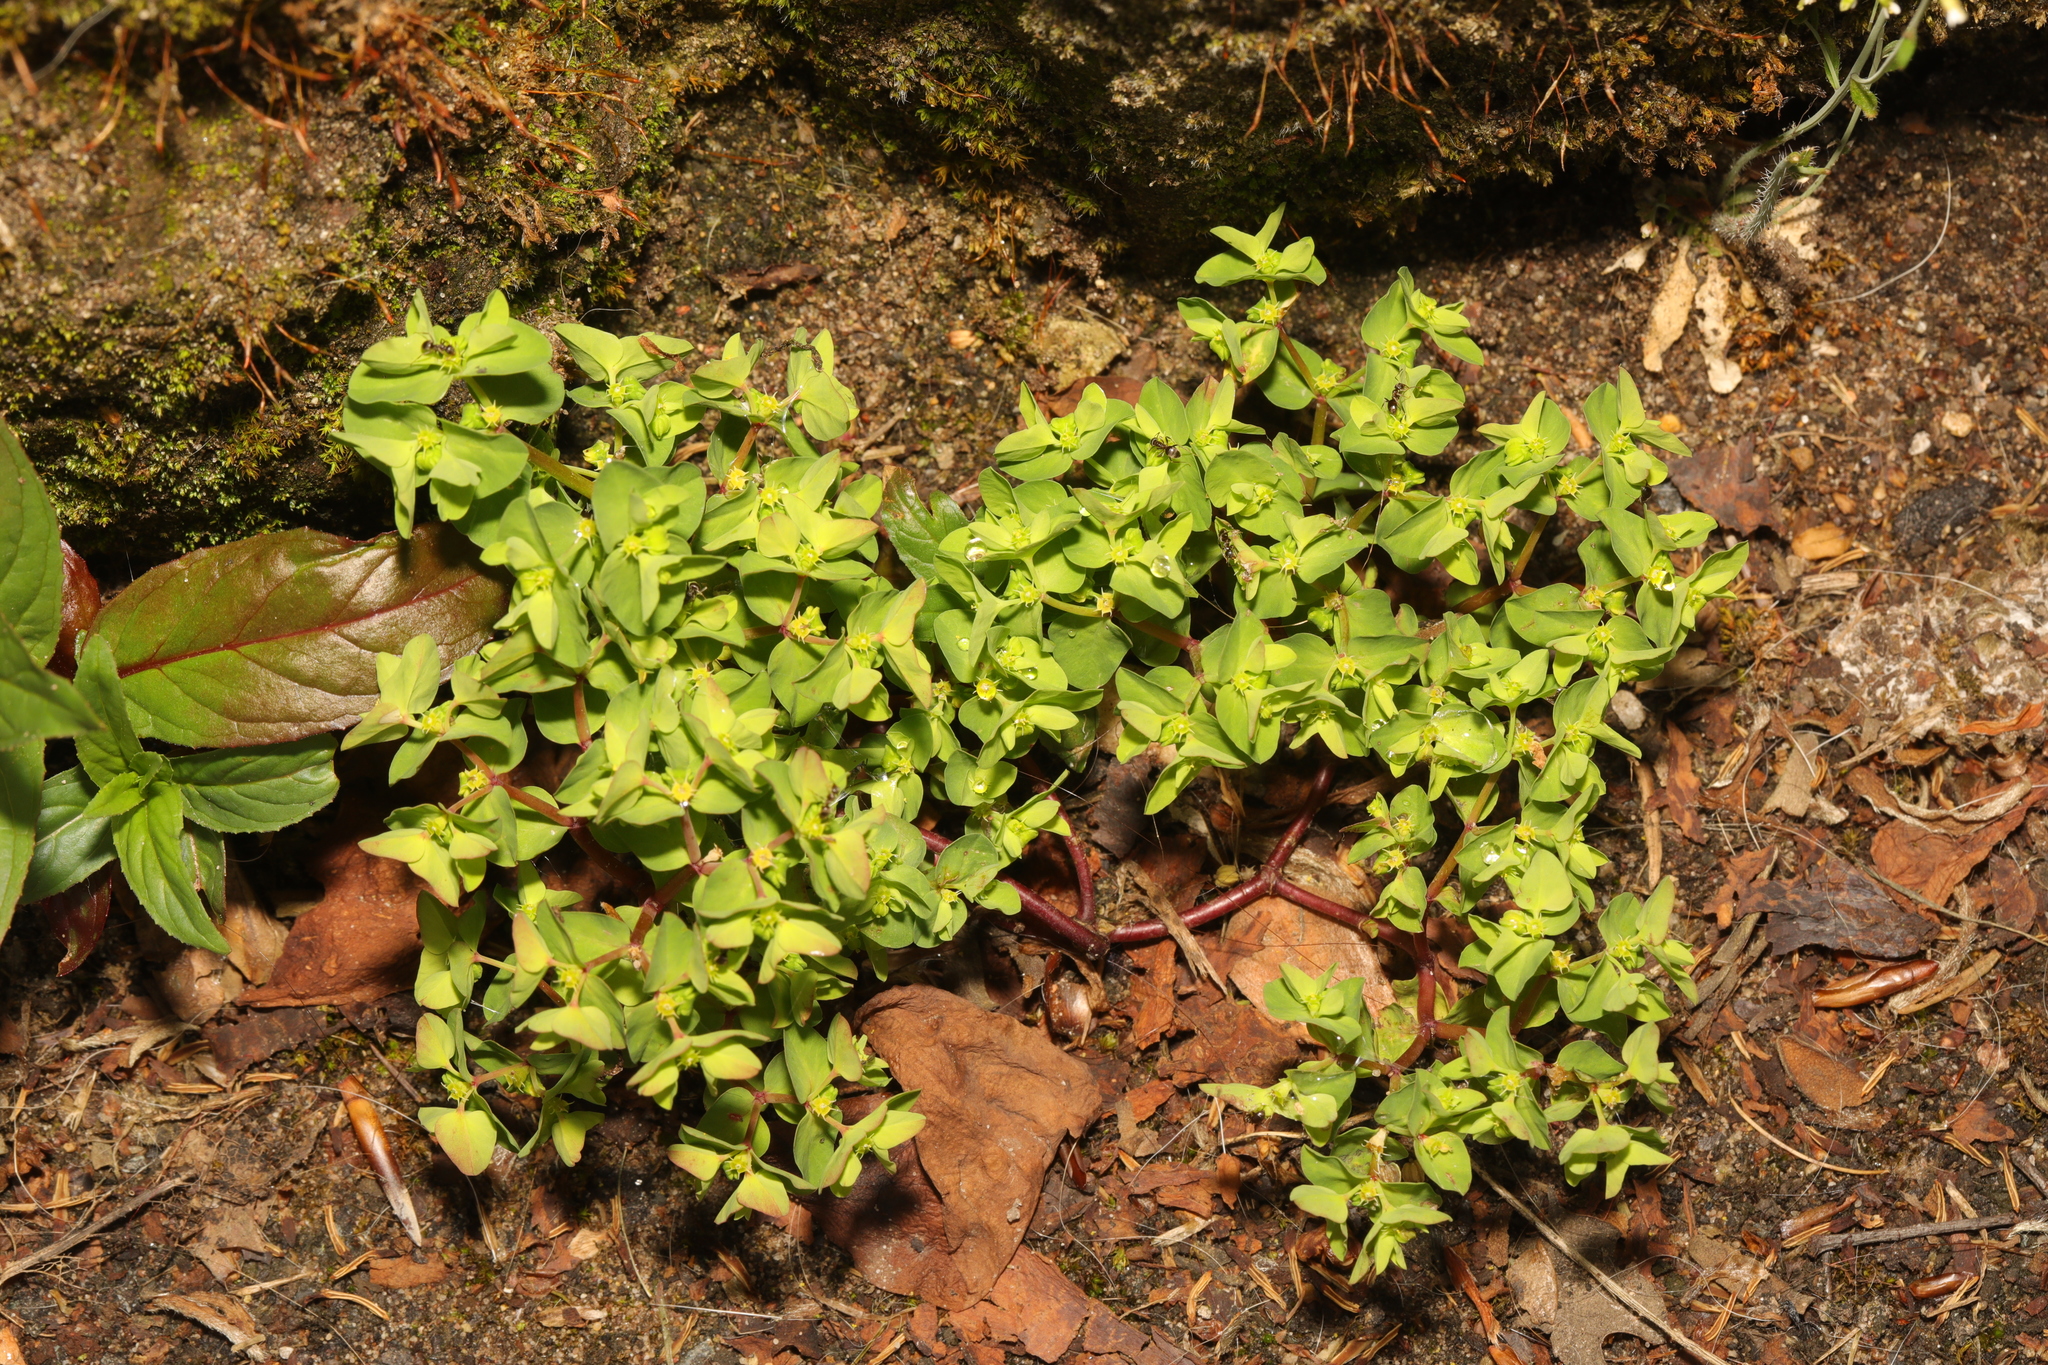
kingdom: Plantae
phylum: Tracheophyta
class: Magnoliopsida
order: Malpighiales
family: Euphorbiaceae
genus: Euphorbia
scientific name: Euphorbia peplus
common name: Petty spurge
